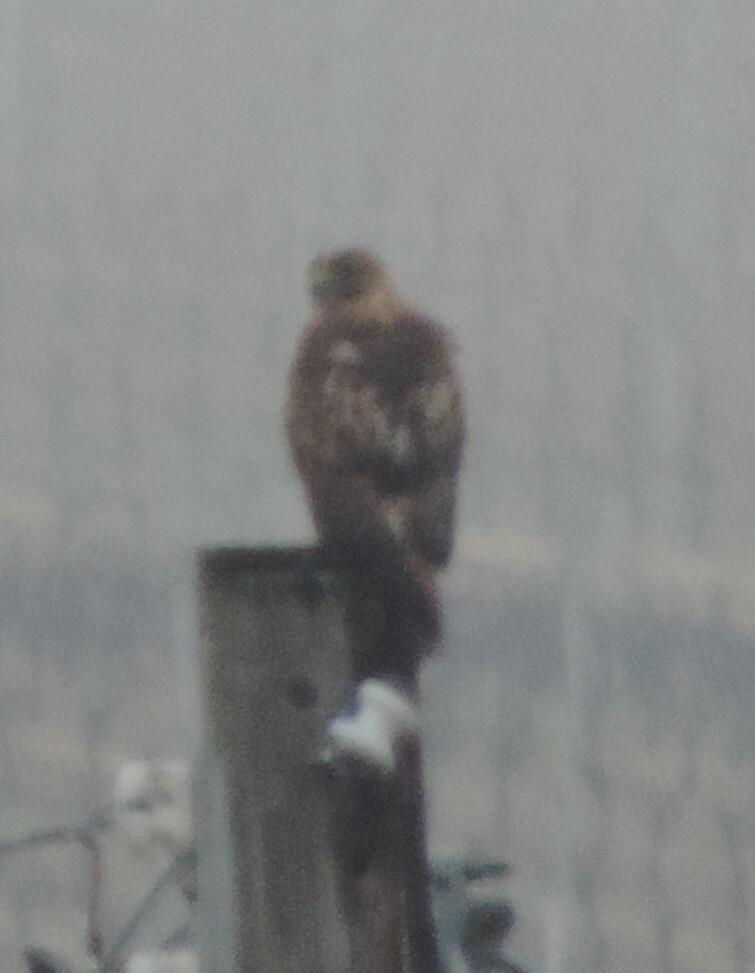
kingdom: Animalia
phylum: Chordata
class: Aves
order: Accipitriformes
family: Accipitridae
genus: Buteo
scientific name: Buteo jamaicensis
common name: Red-tailed hawk
